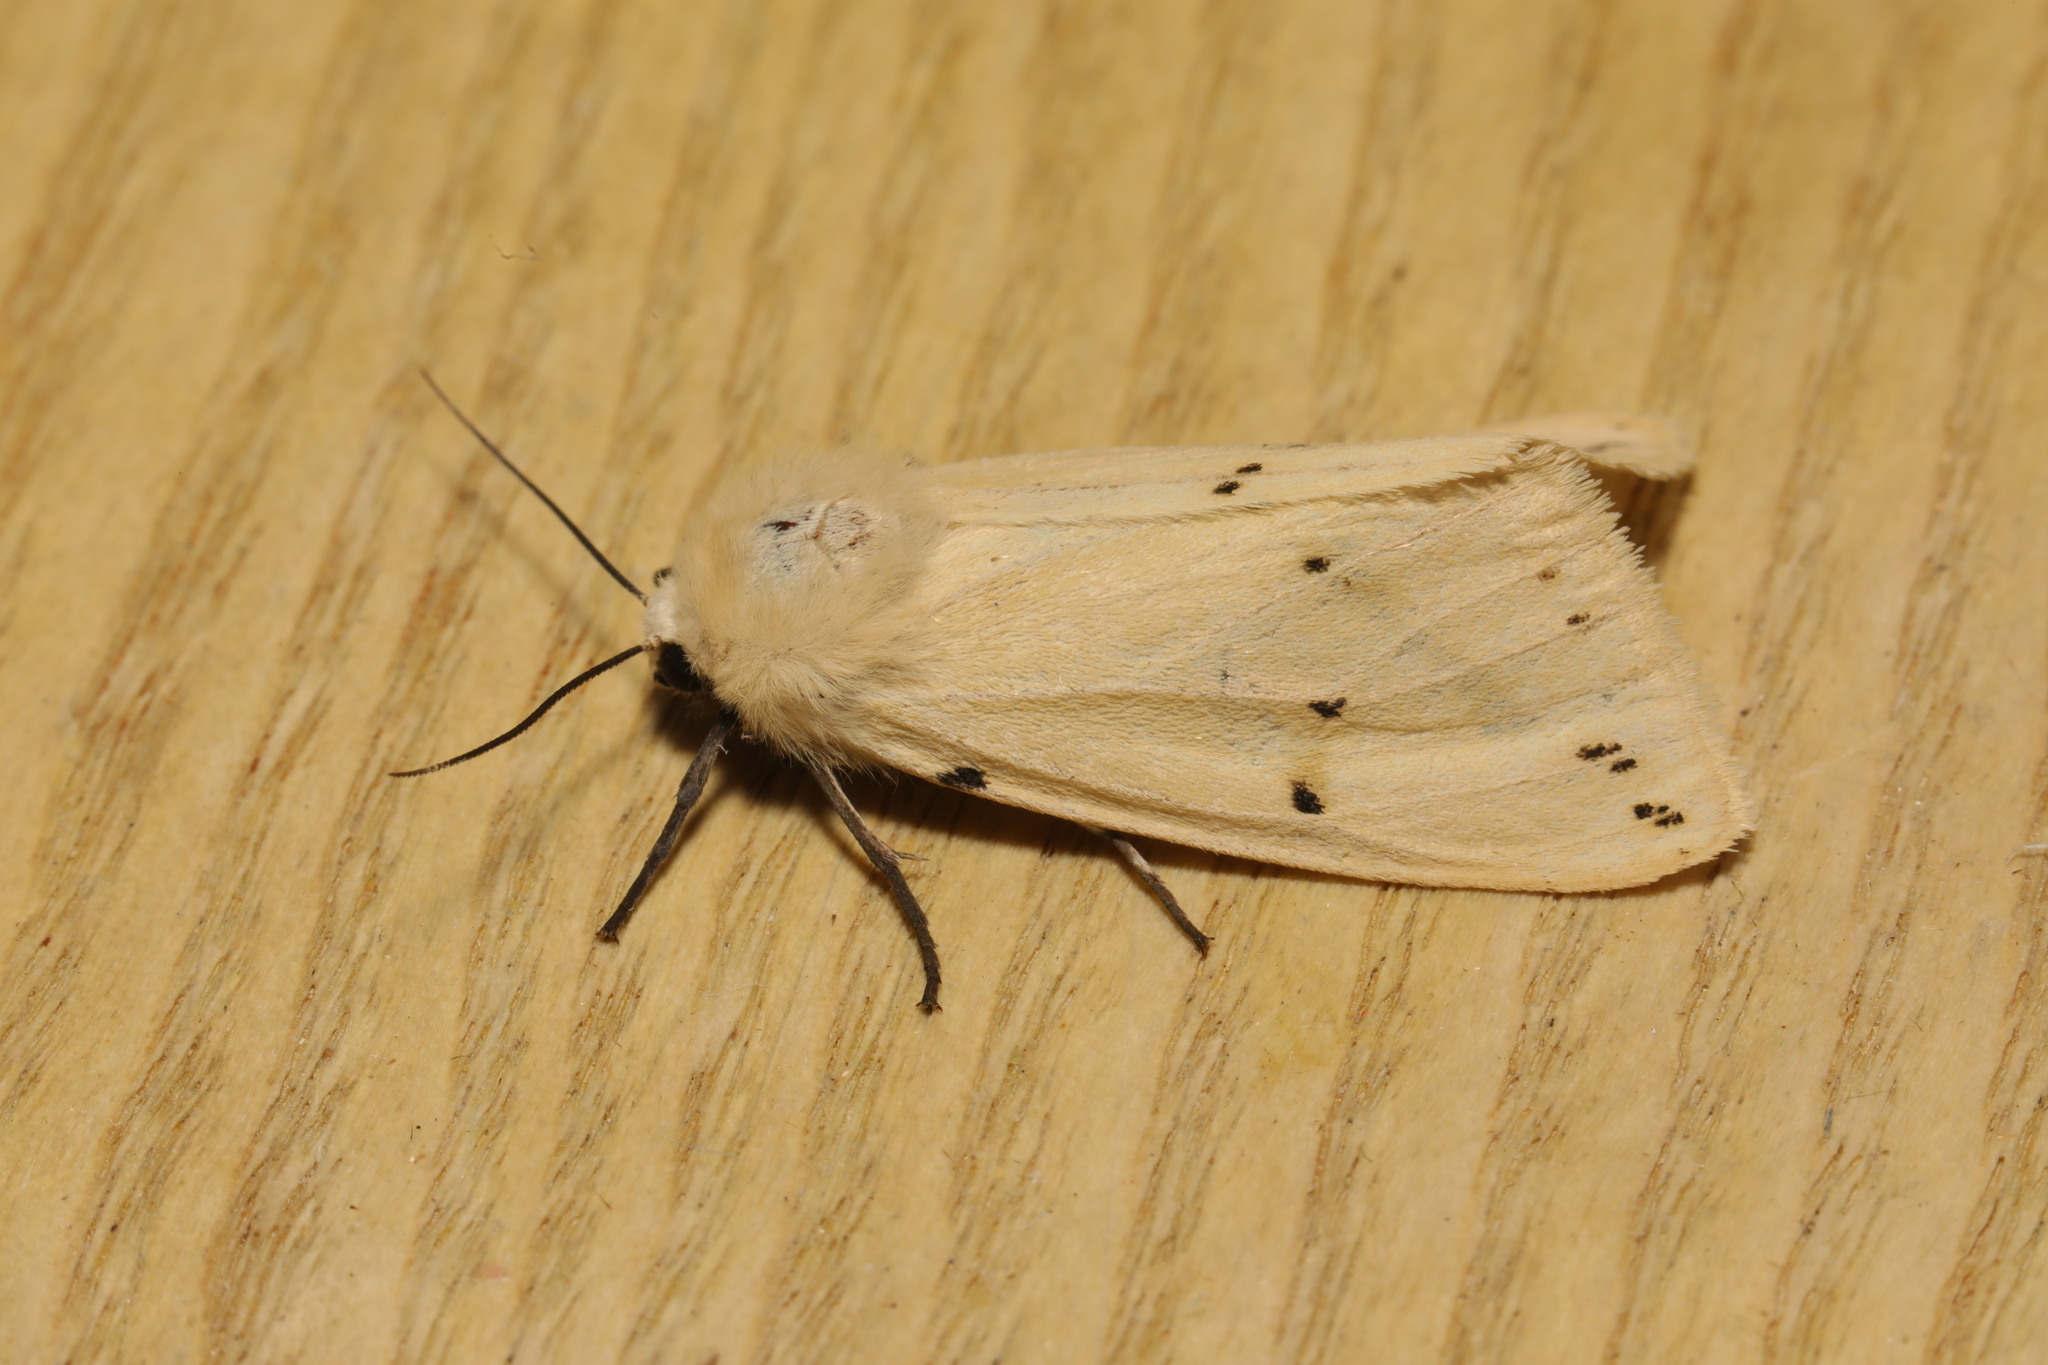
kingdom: Animalia
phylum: Arthropoda
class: Insecta
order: Lepidoptera
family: Erebidae
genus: Spilarctia
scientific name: Spilarctia lutea
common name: Buff ermine
